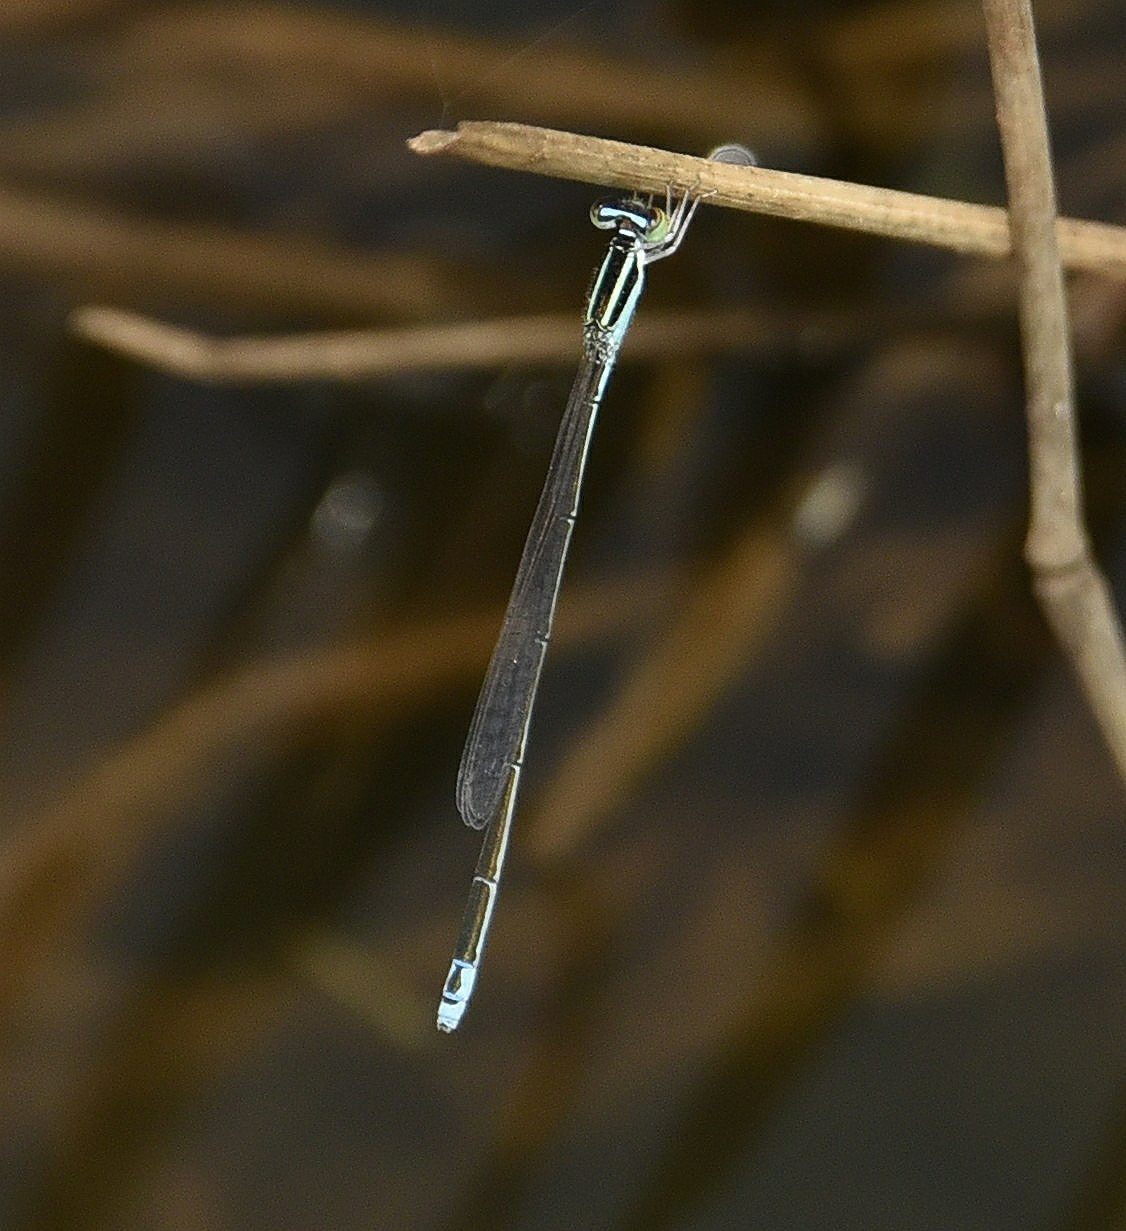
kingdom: Animalia
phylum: Arthropoda
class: Insecta
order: Odonata
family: Coenagrionidae
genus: Aciagrion
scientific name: Aciagrion occidentale
